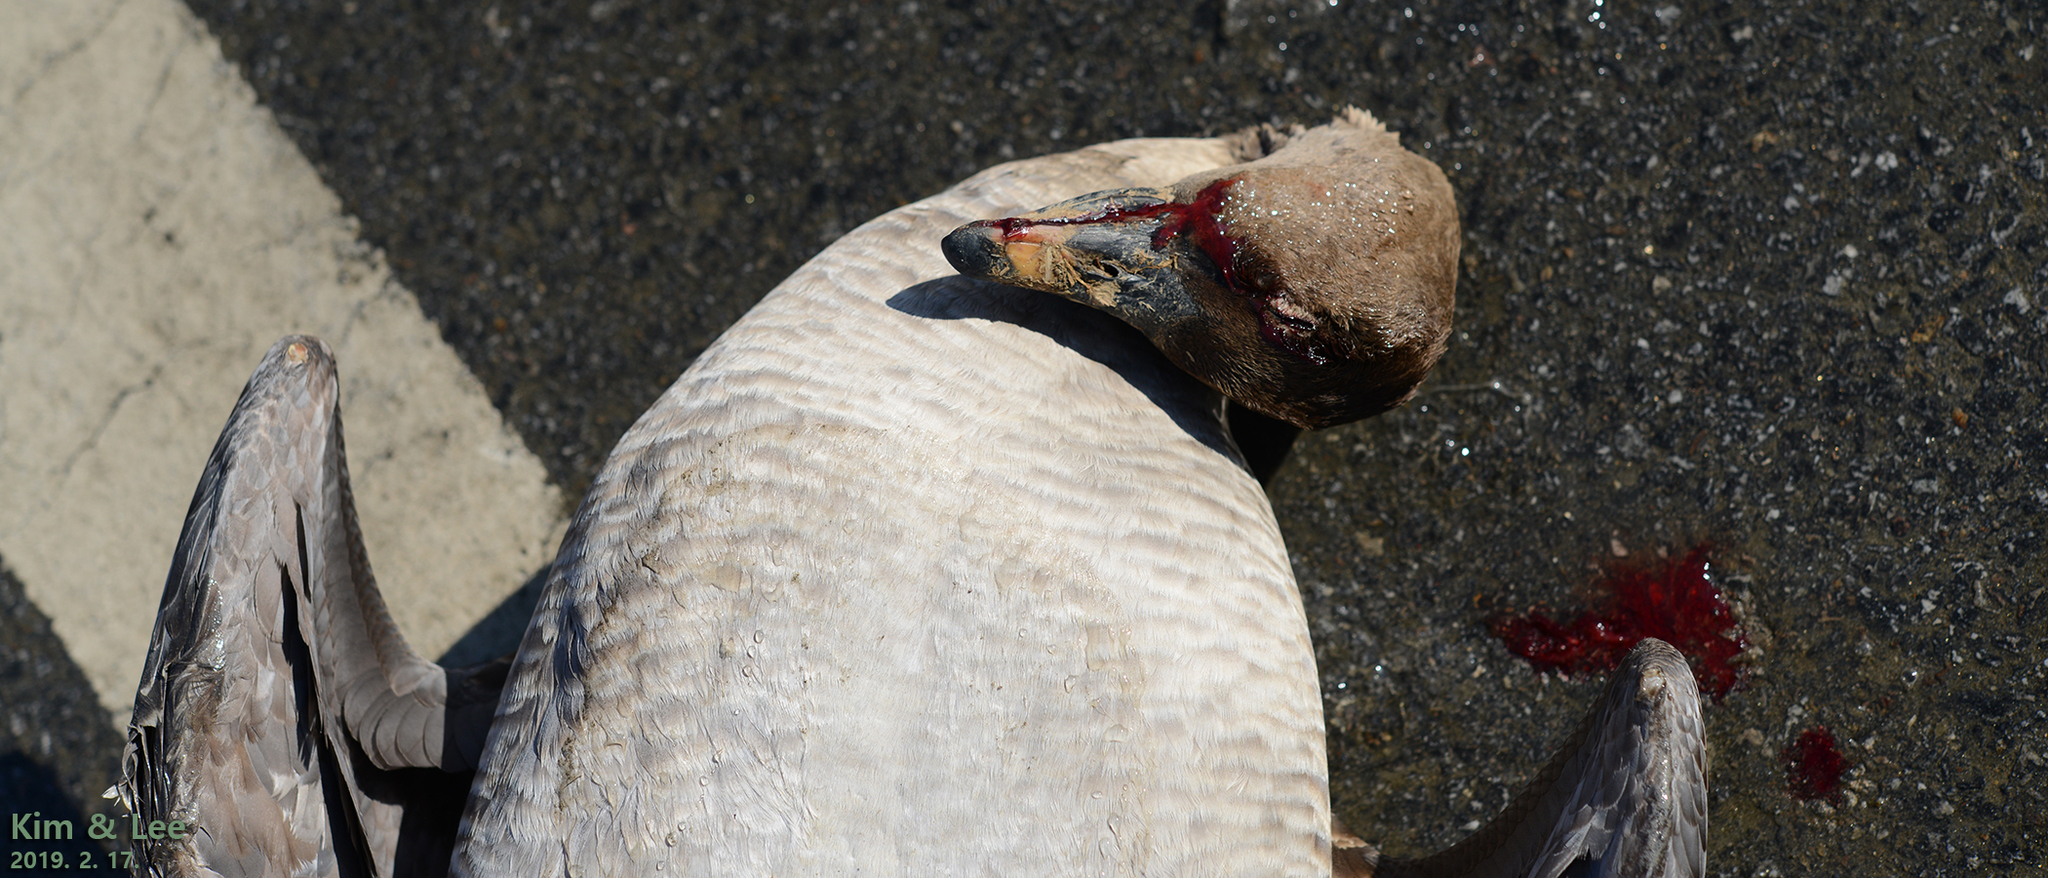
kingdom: Animalia
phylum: Chordata
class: Aves
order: Anseriformes
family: Anatidae
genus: Anser
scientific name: Anser fabalis
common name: Bean goose
